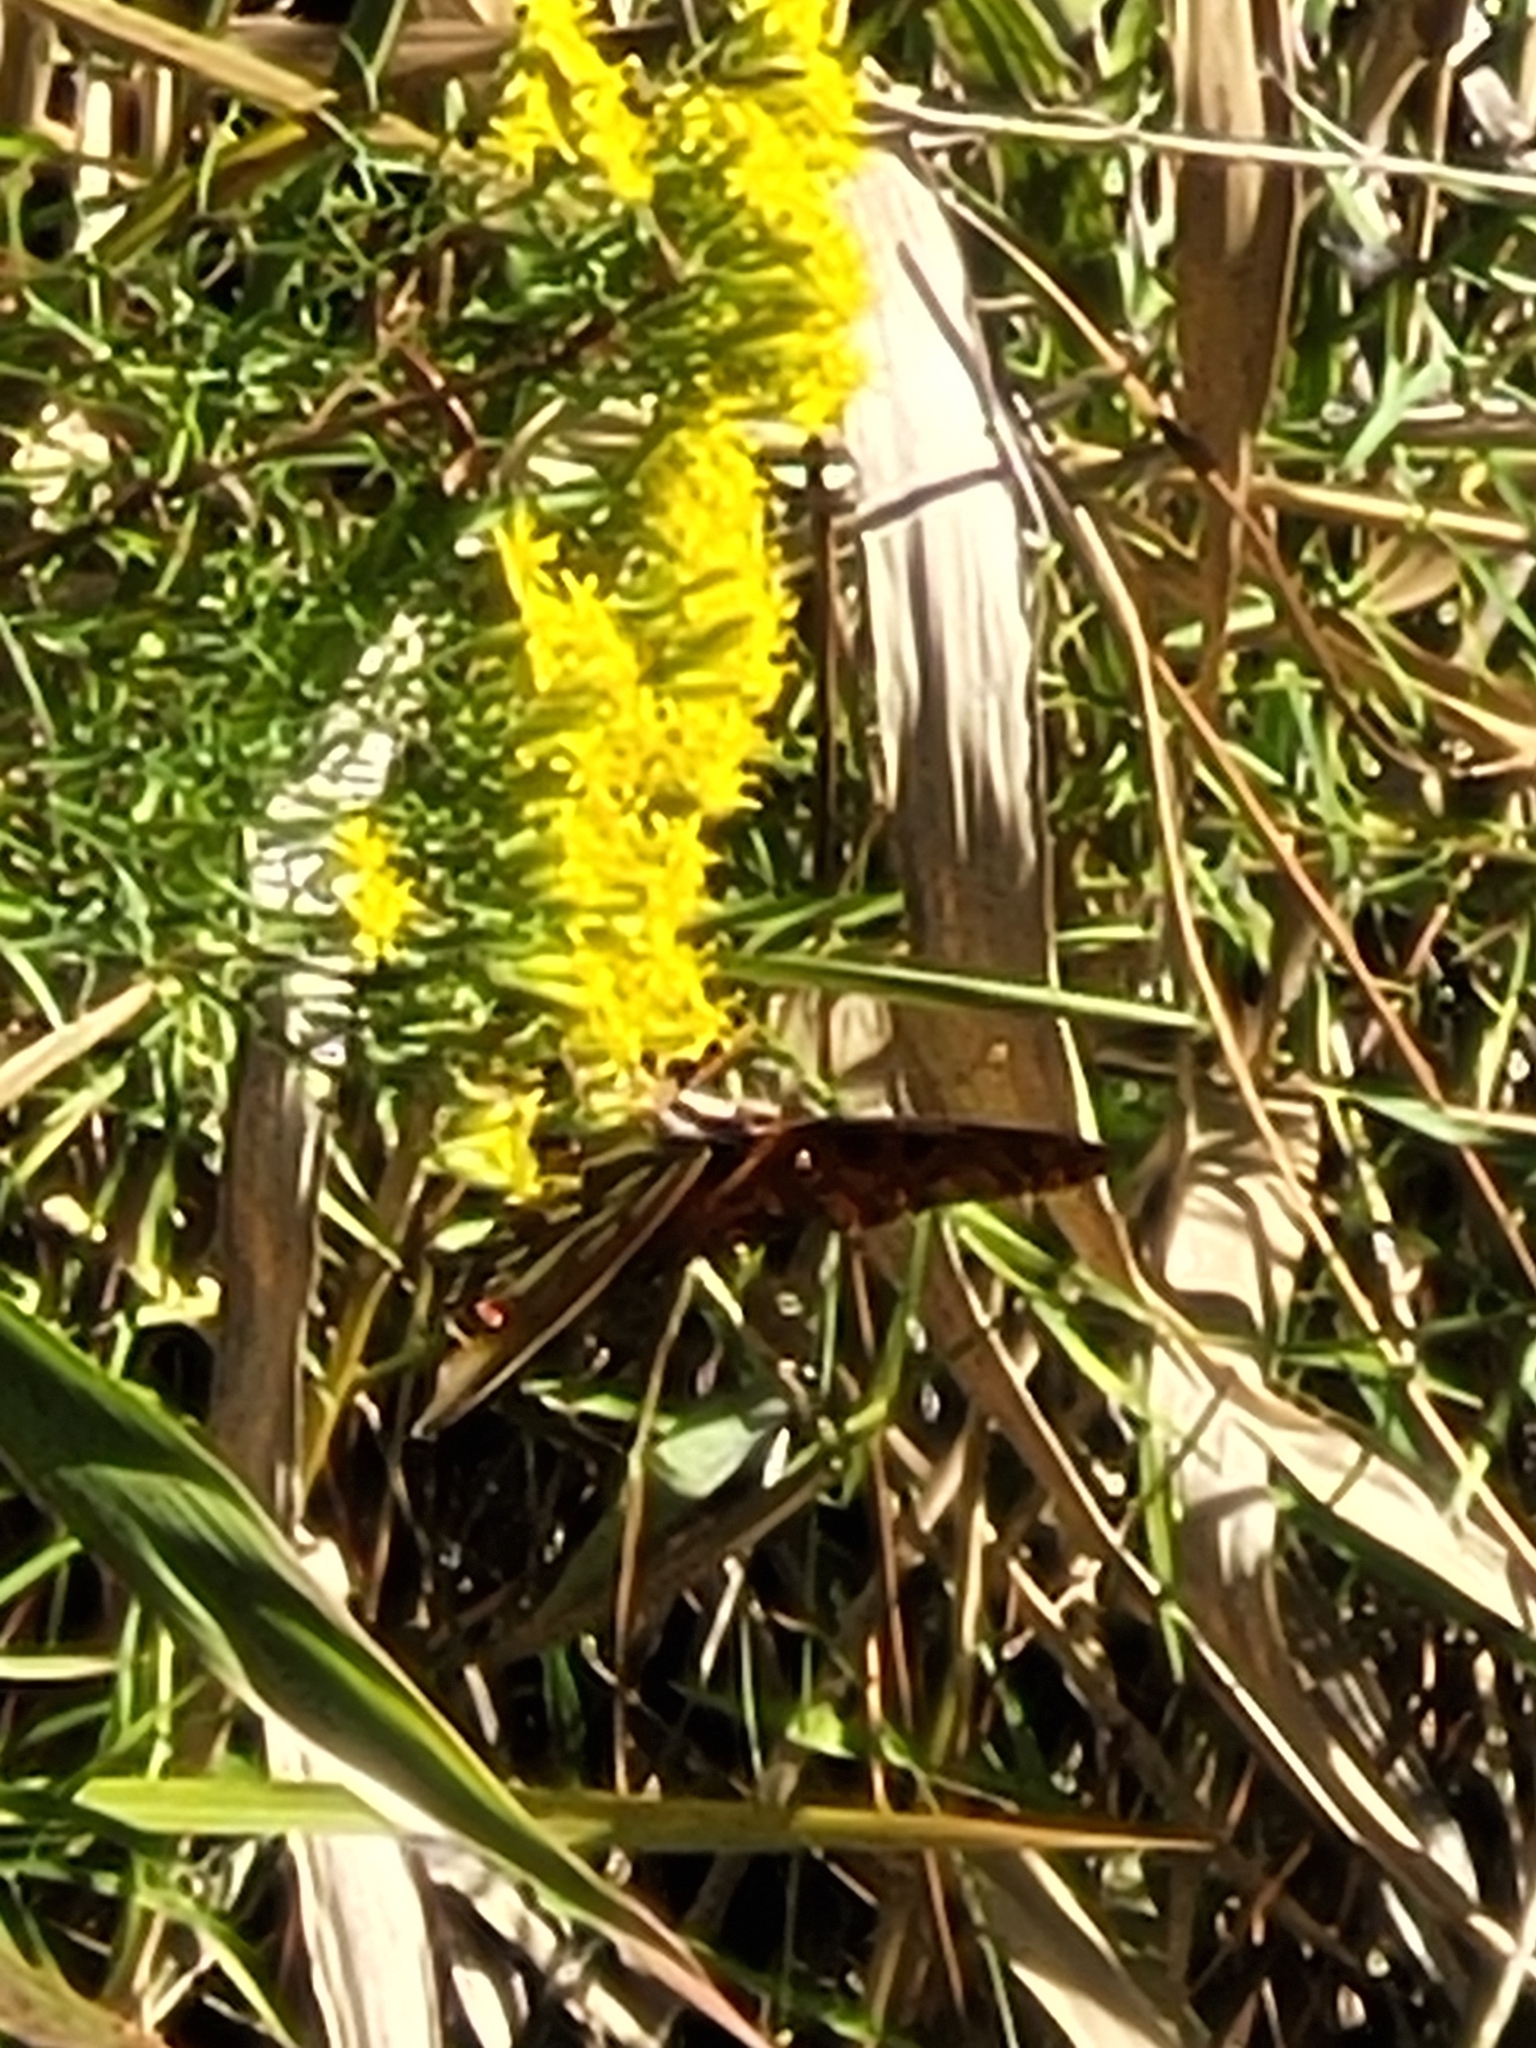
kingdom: Animalia
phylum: Arthropoda
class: Insecta
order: Lepidoptera
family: Nymphalidae
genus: Dione
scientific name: Dione vanillae
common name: Gulf fritillary
